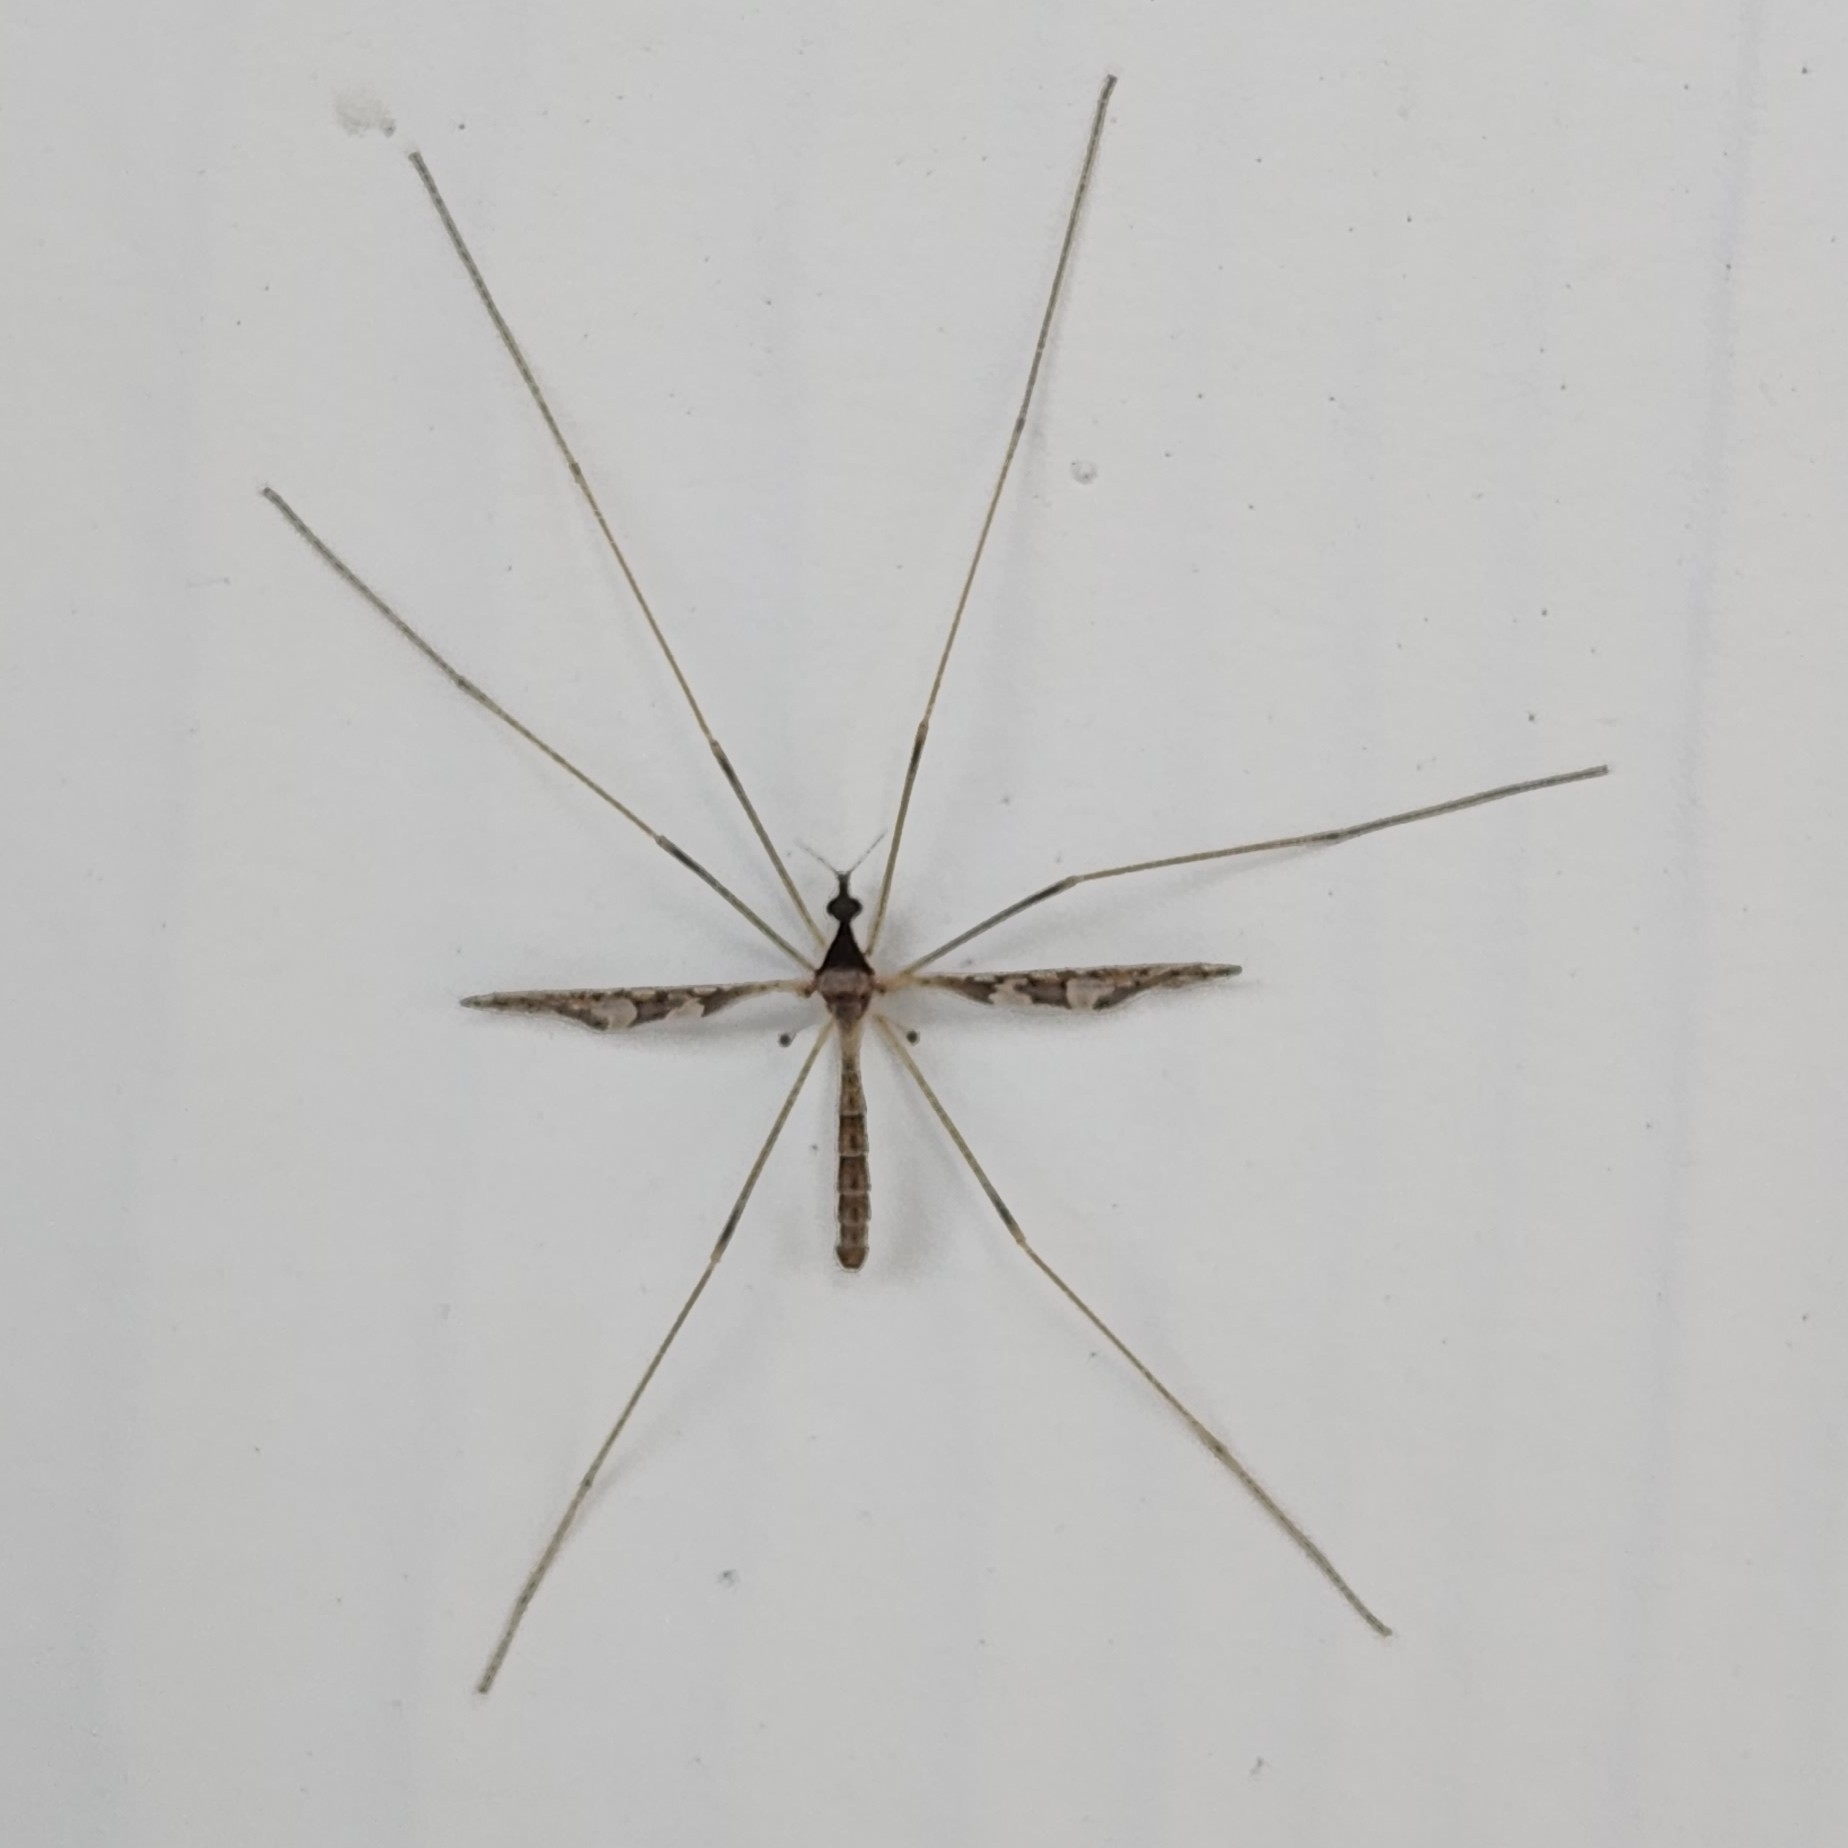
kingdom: Animalia
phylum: Arthropoda
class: Insecta
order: Diptera
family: Limoniidae
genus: Epiphragma
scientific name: Epiphragma solatrix
